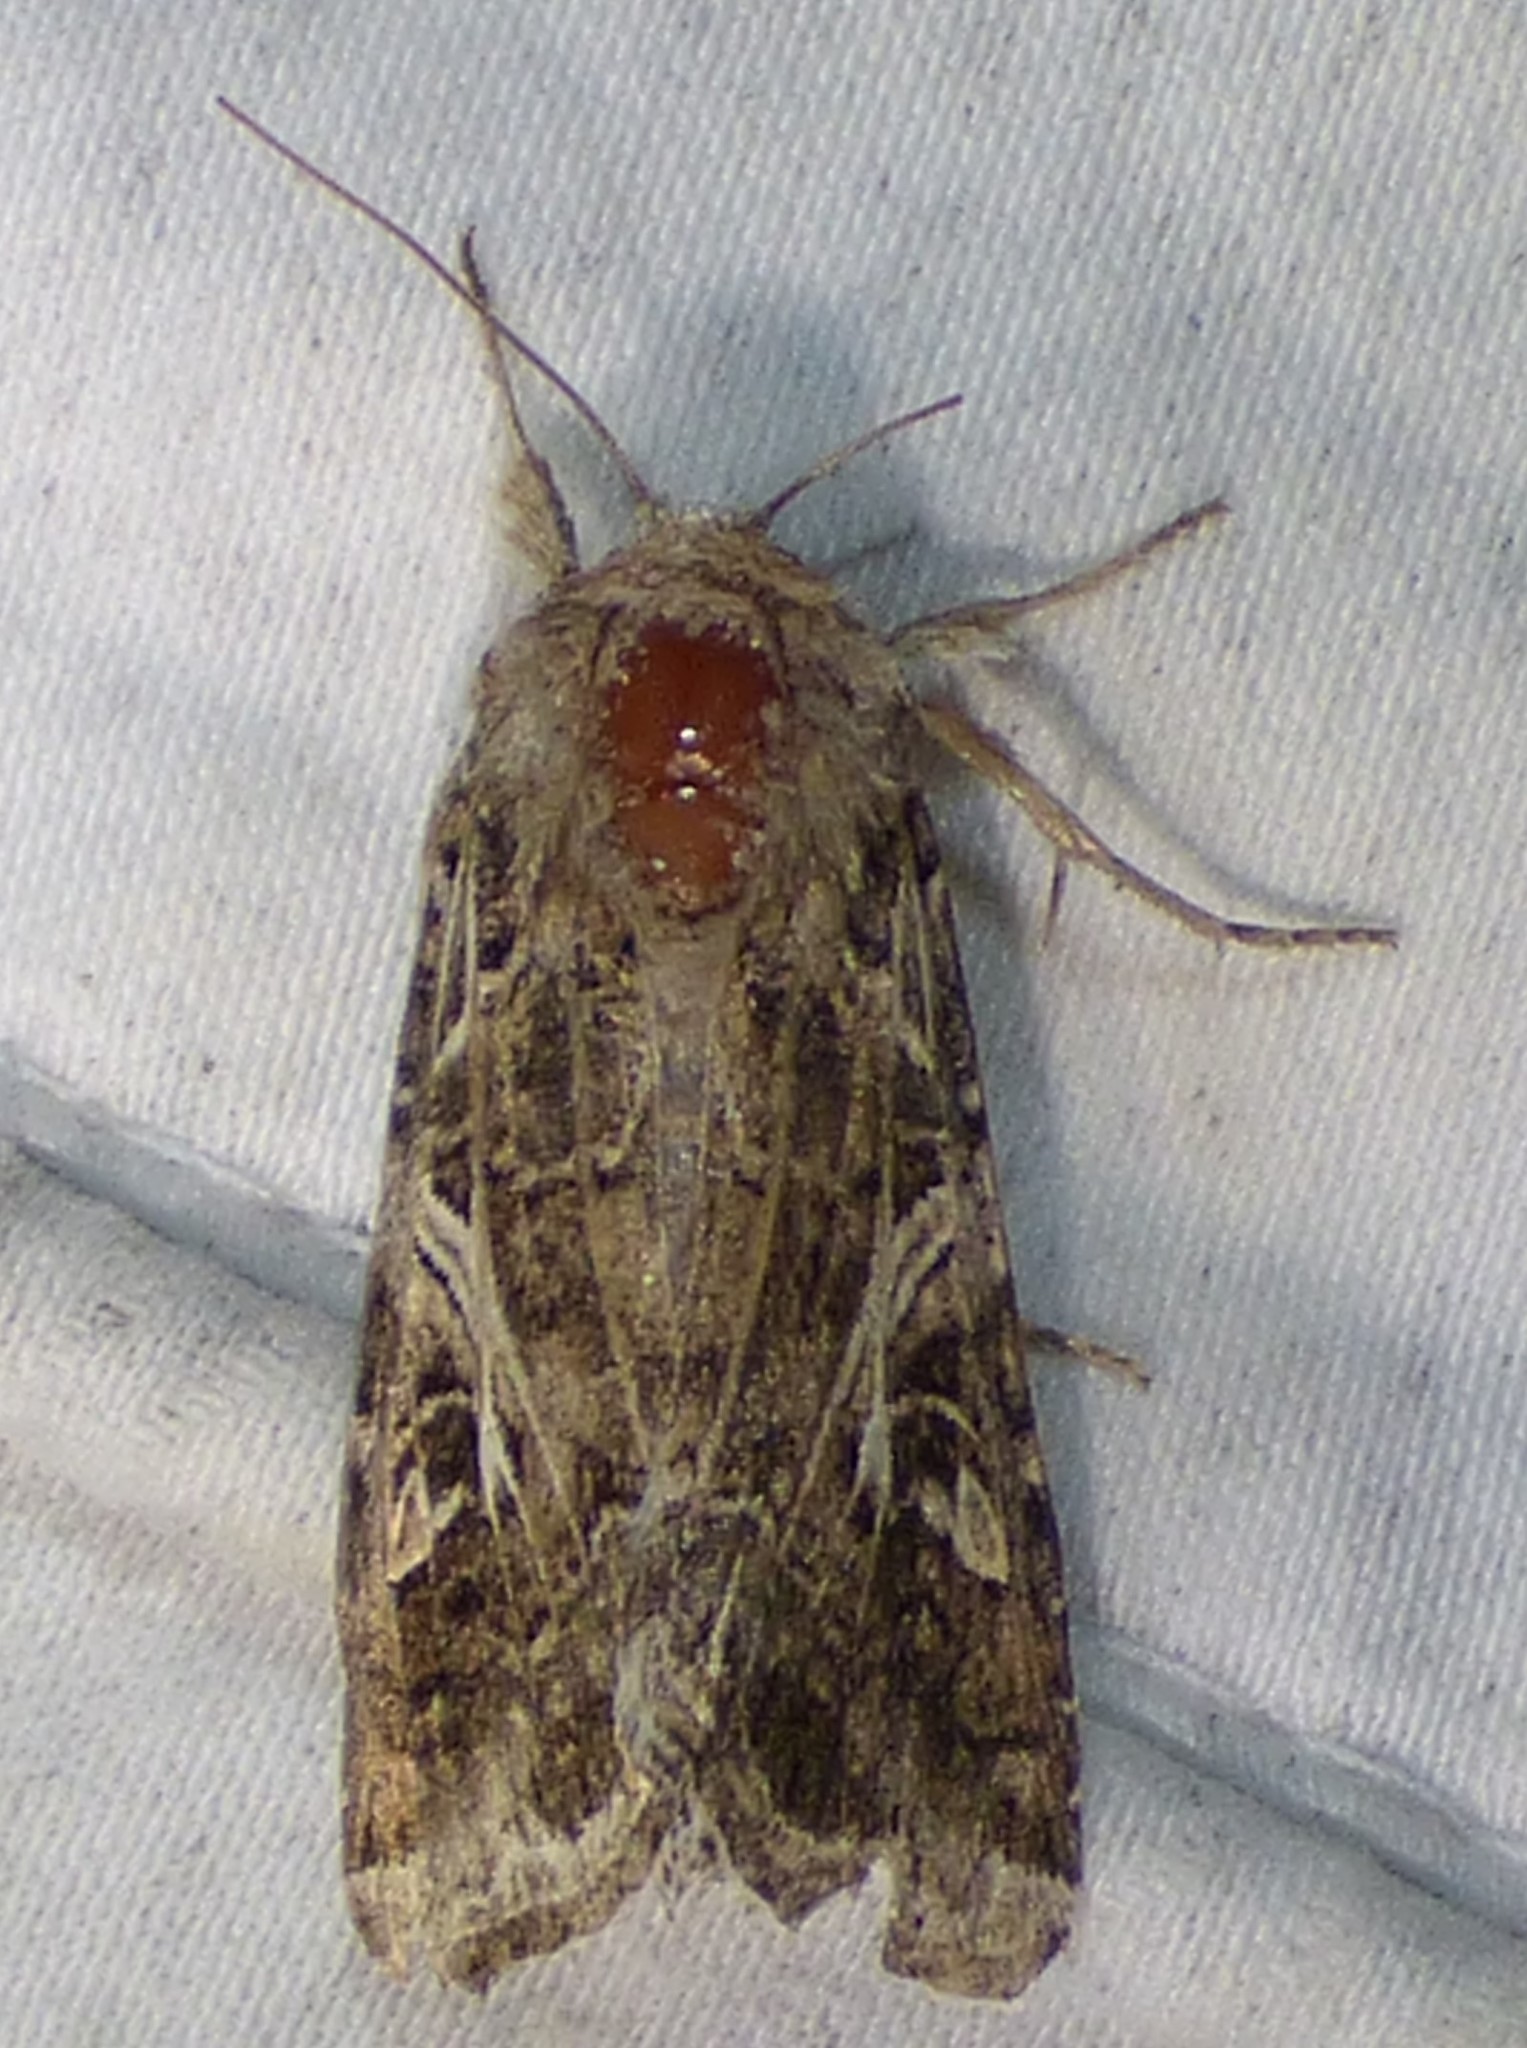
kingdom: Animalia
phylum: Arthropoda
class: Insecta
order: Lepidoptera
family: Noctuidae
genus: Spodoptera
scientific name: Spodoptera ornithogalli
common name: Yellow-striped armyworm
